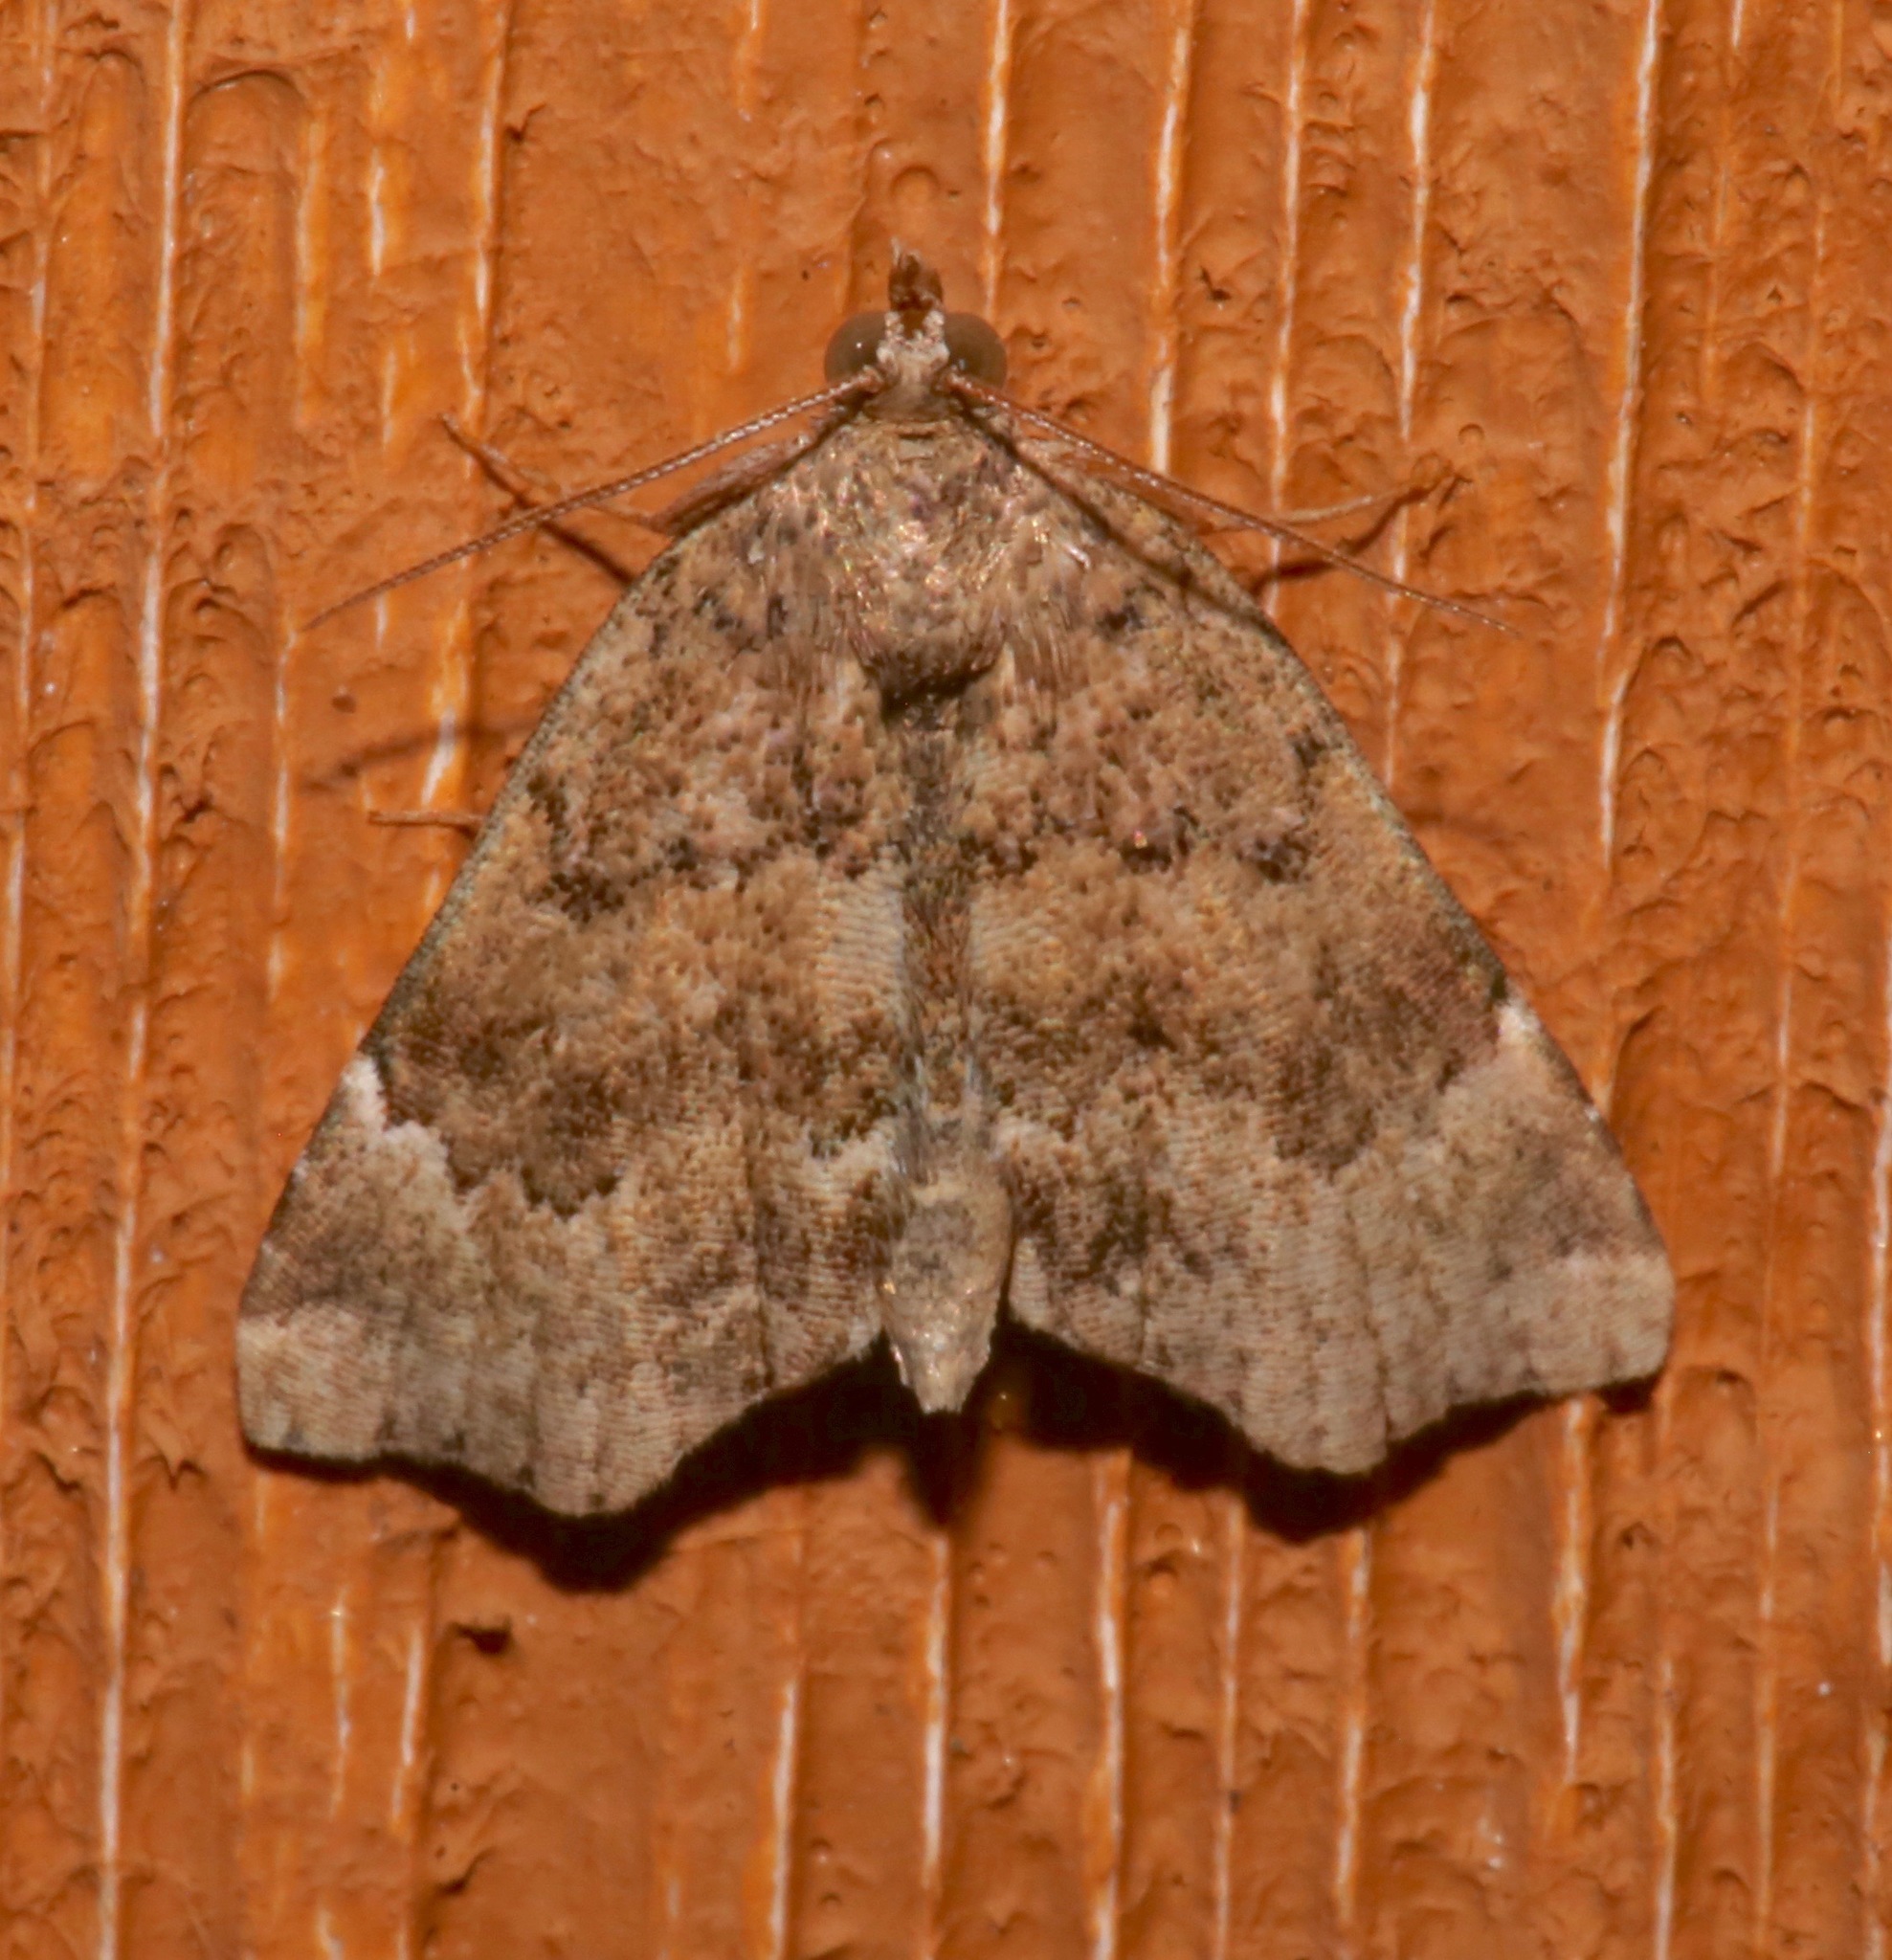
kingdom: Animalia
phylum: Arthropoda
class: Insecta
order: Lepidoptera
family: Erebidae
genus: Cutina
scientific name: Cutina aluticolor
